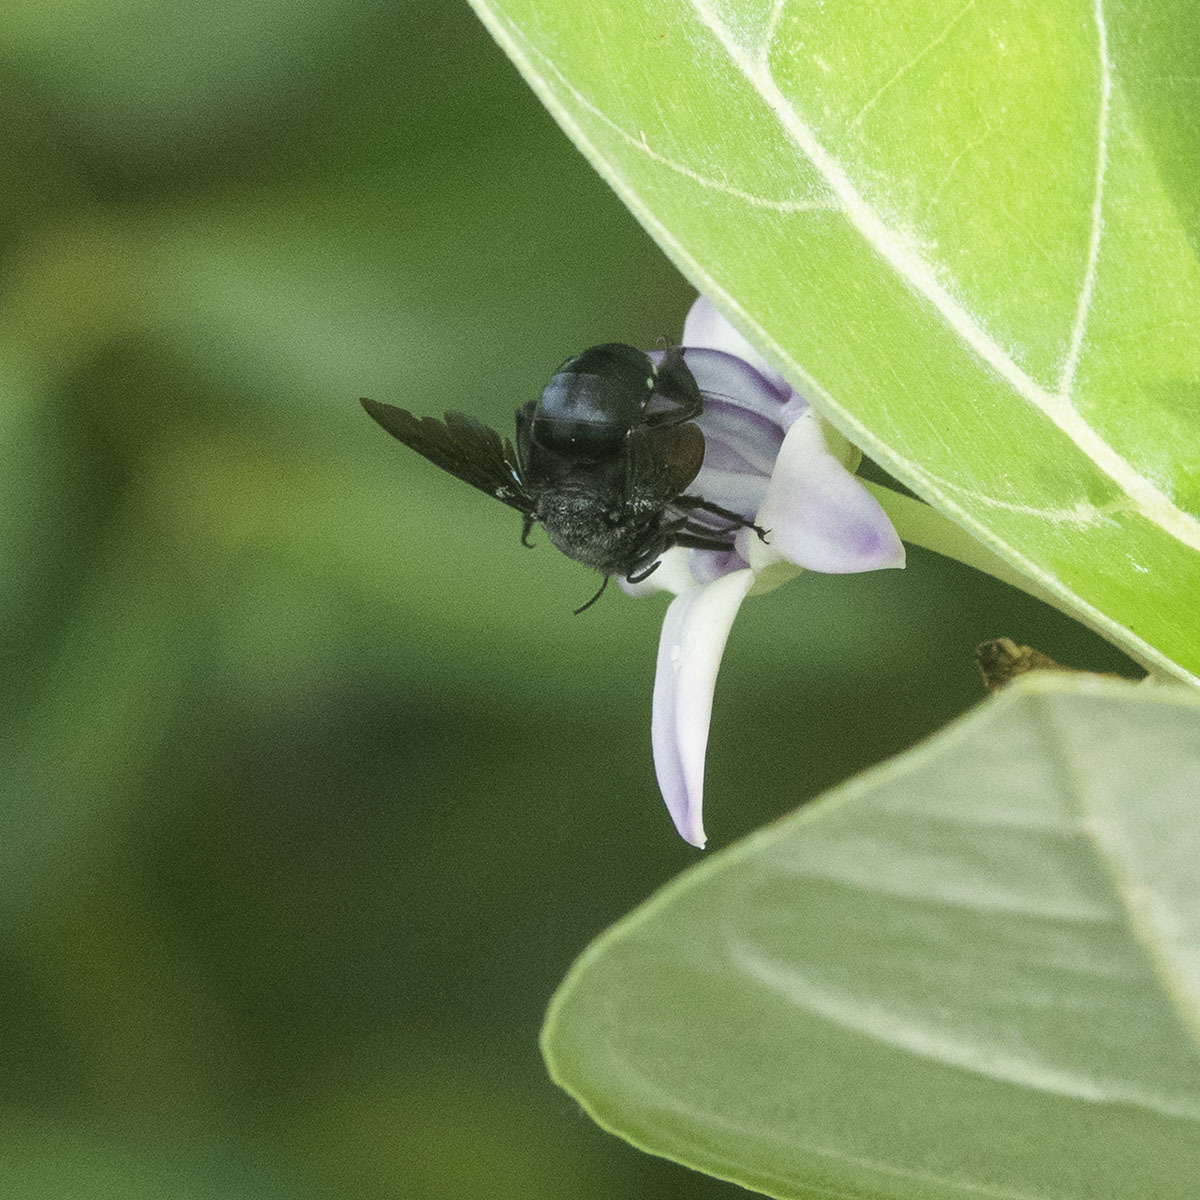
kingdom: Animalia
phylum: Arthropoda
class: Insecta
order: Hymenoptera
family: Apidae
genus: Amegilla
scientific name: Amegilla violacea
